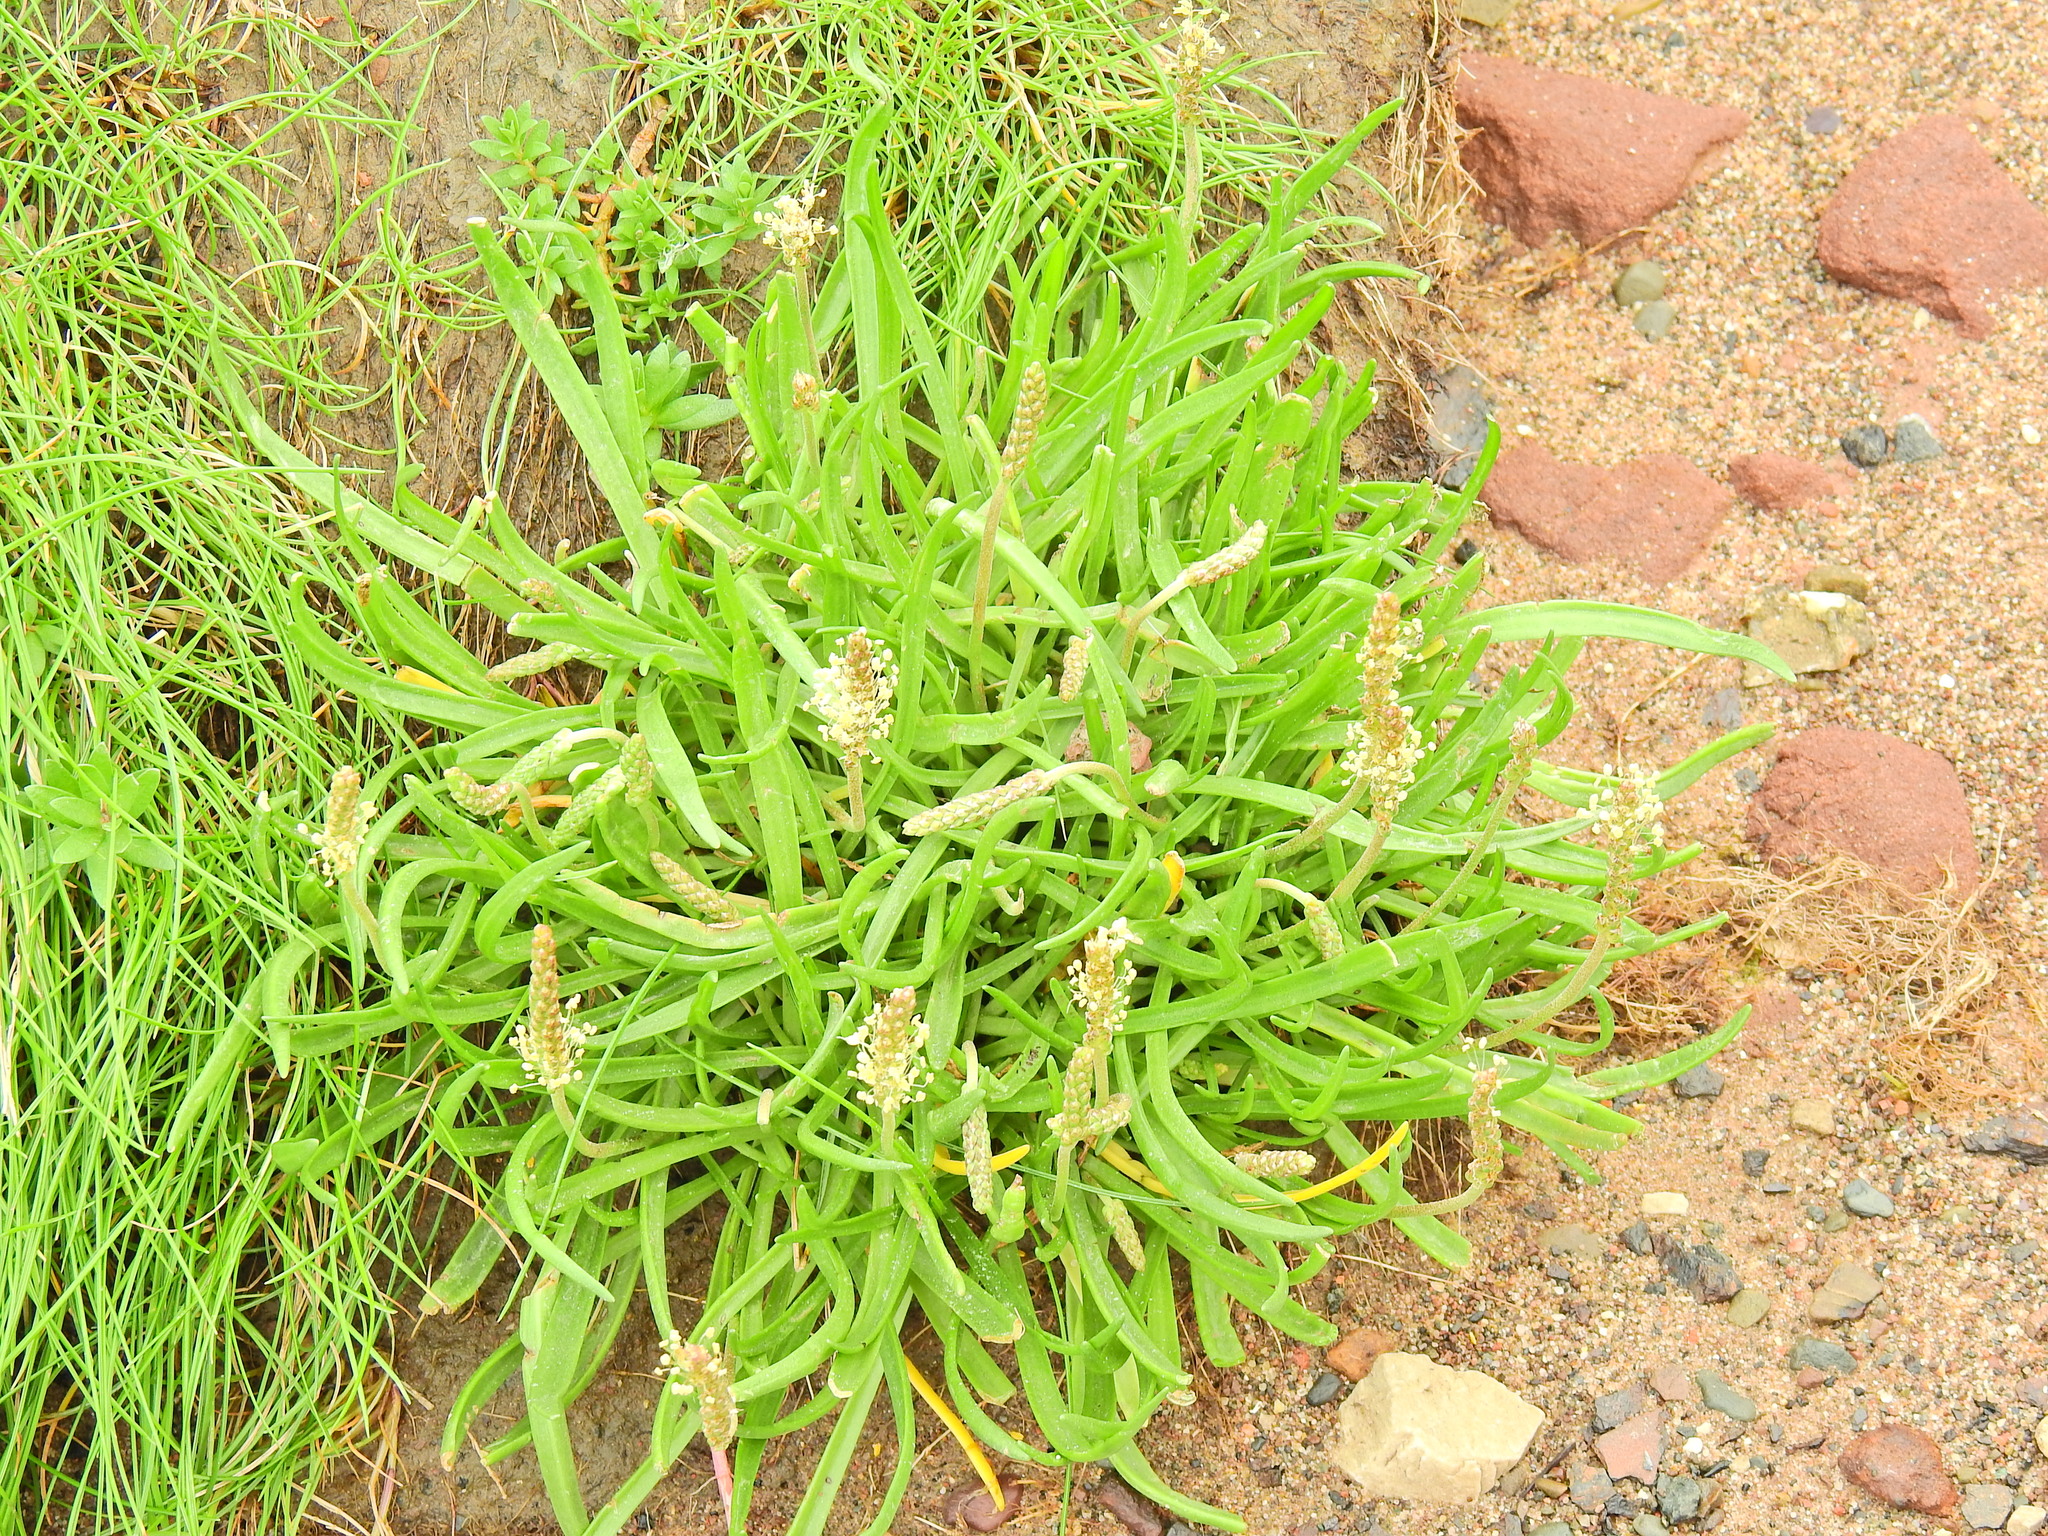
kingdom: Plantae
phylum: Tracheophyta
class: Magnoliopsida
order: Lamiales
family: Plantaginaceae
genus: Plantago
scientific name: Plantago maritima
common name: Sea plantain
